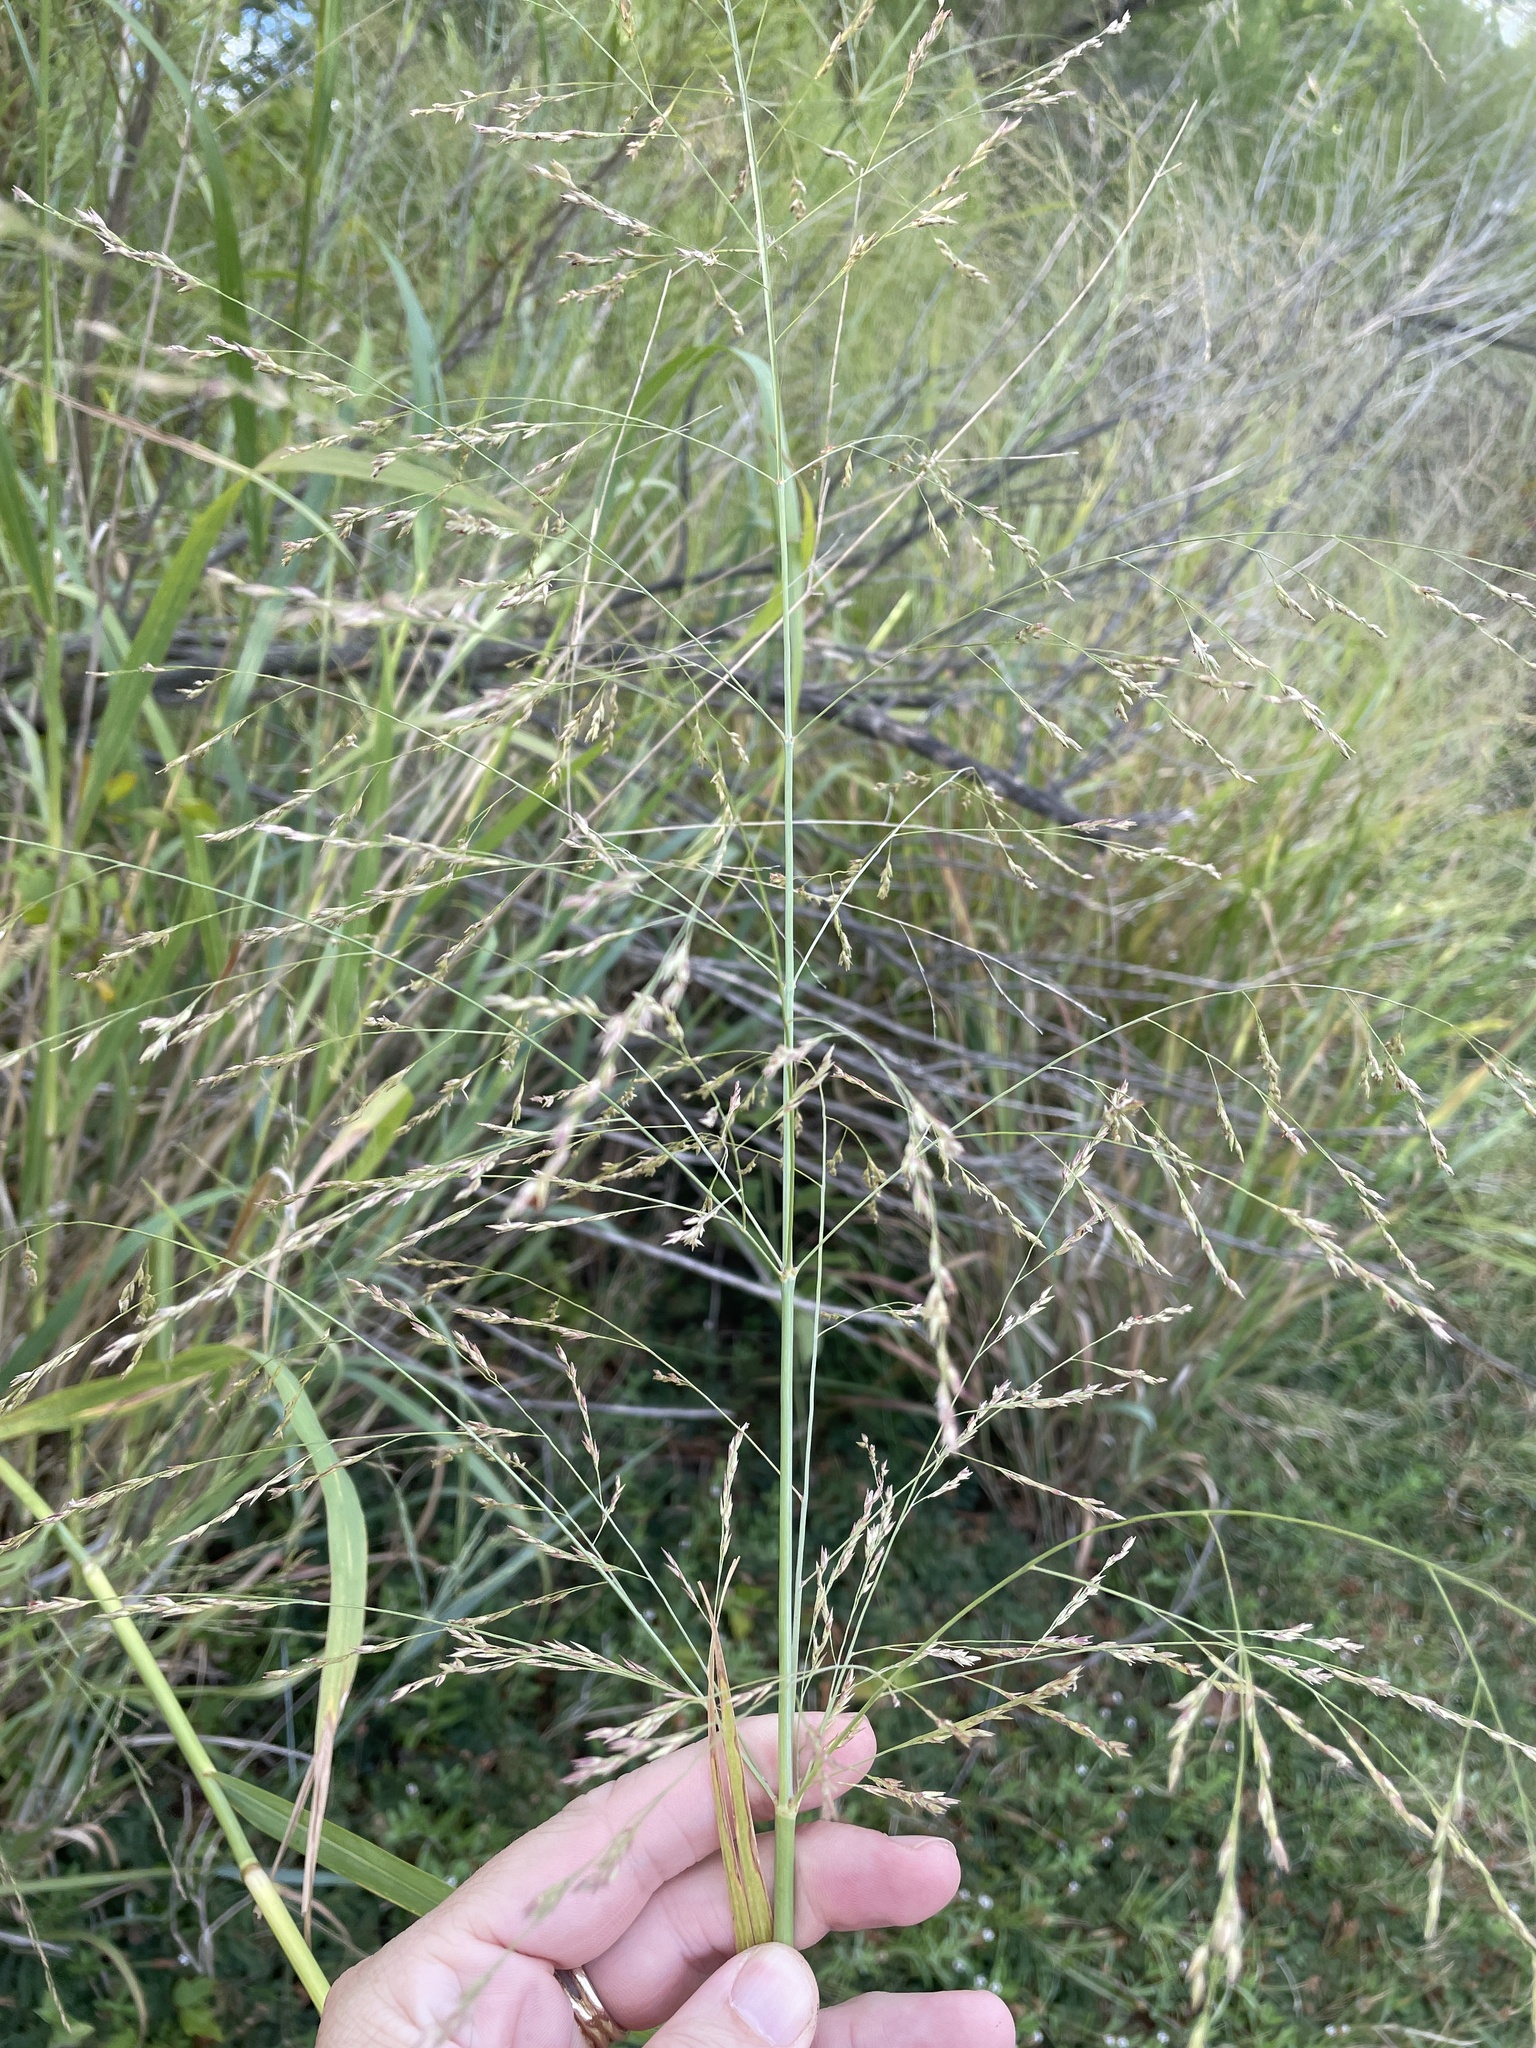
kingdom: Plantae
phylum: Tracheophyta
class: Liliopsida
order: Poales
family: Poaceae
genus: Panicum
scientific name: Panicum virgatum
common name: Switchgrass
